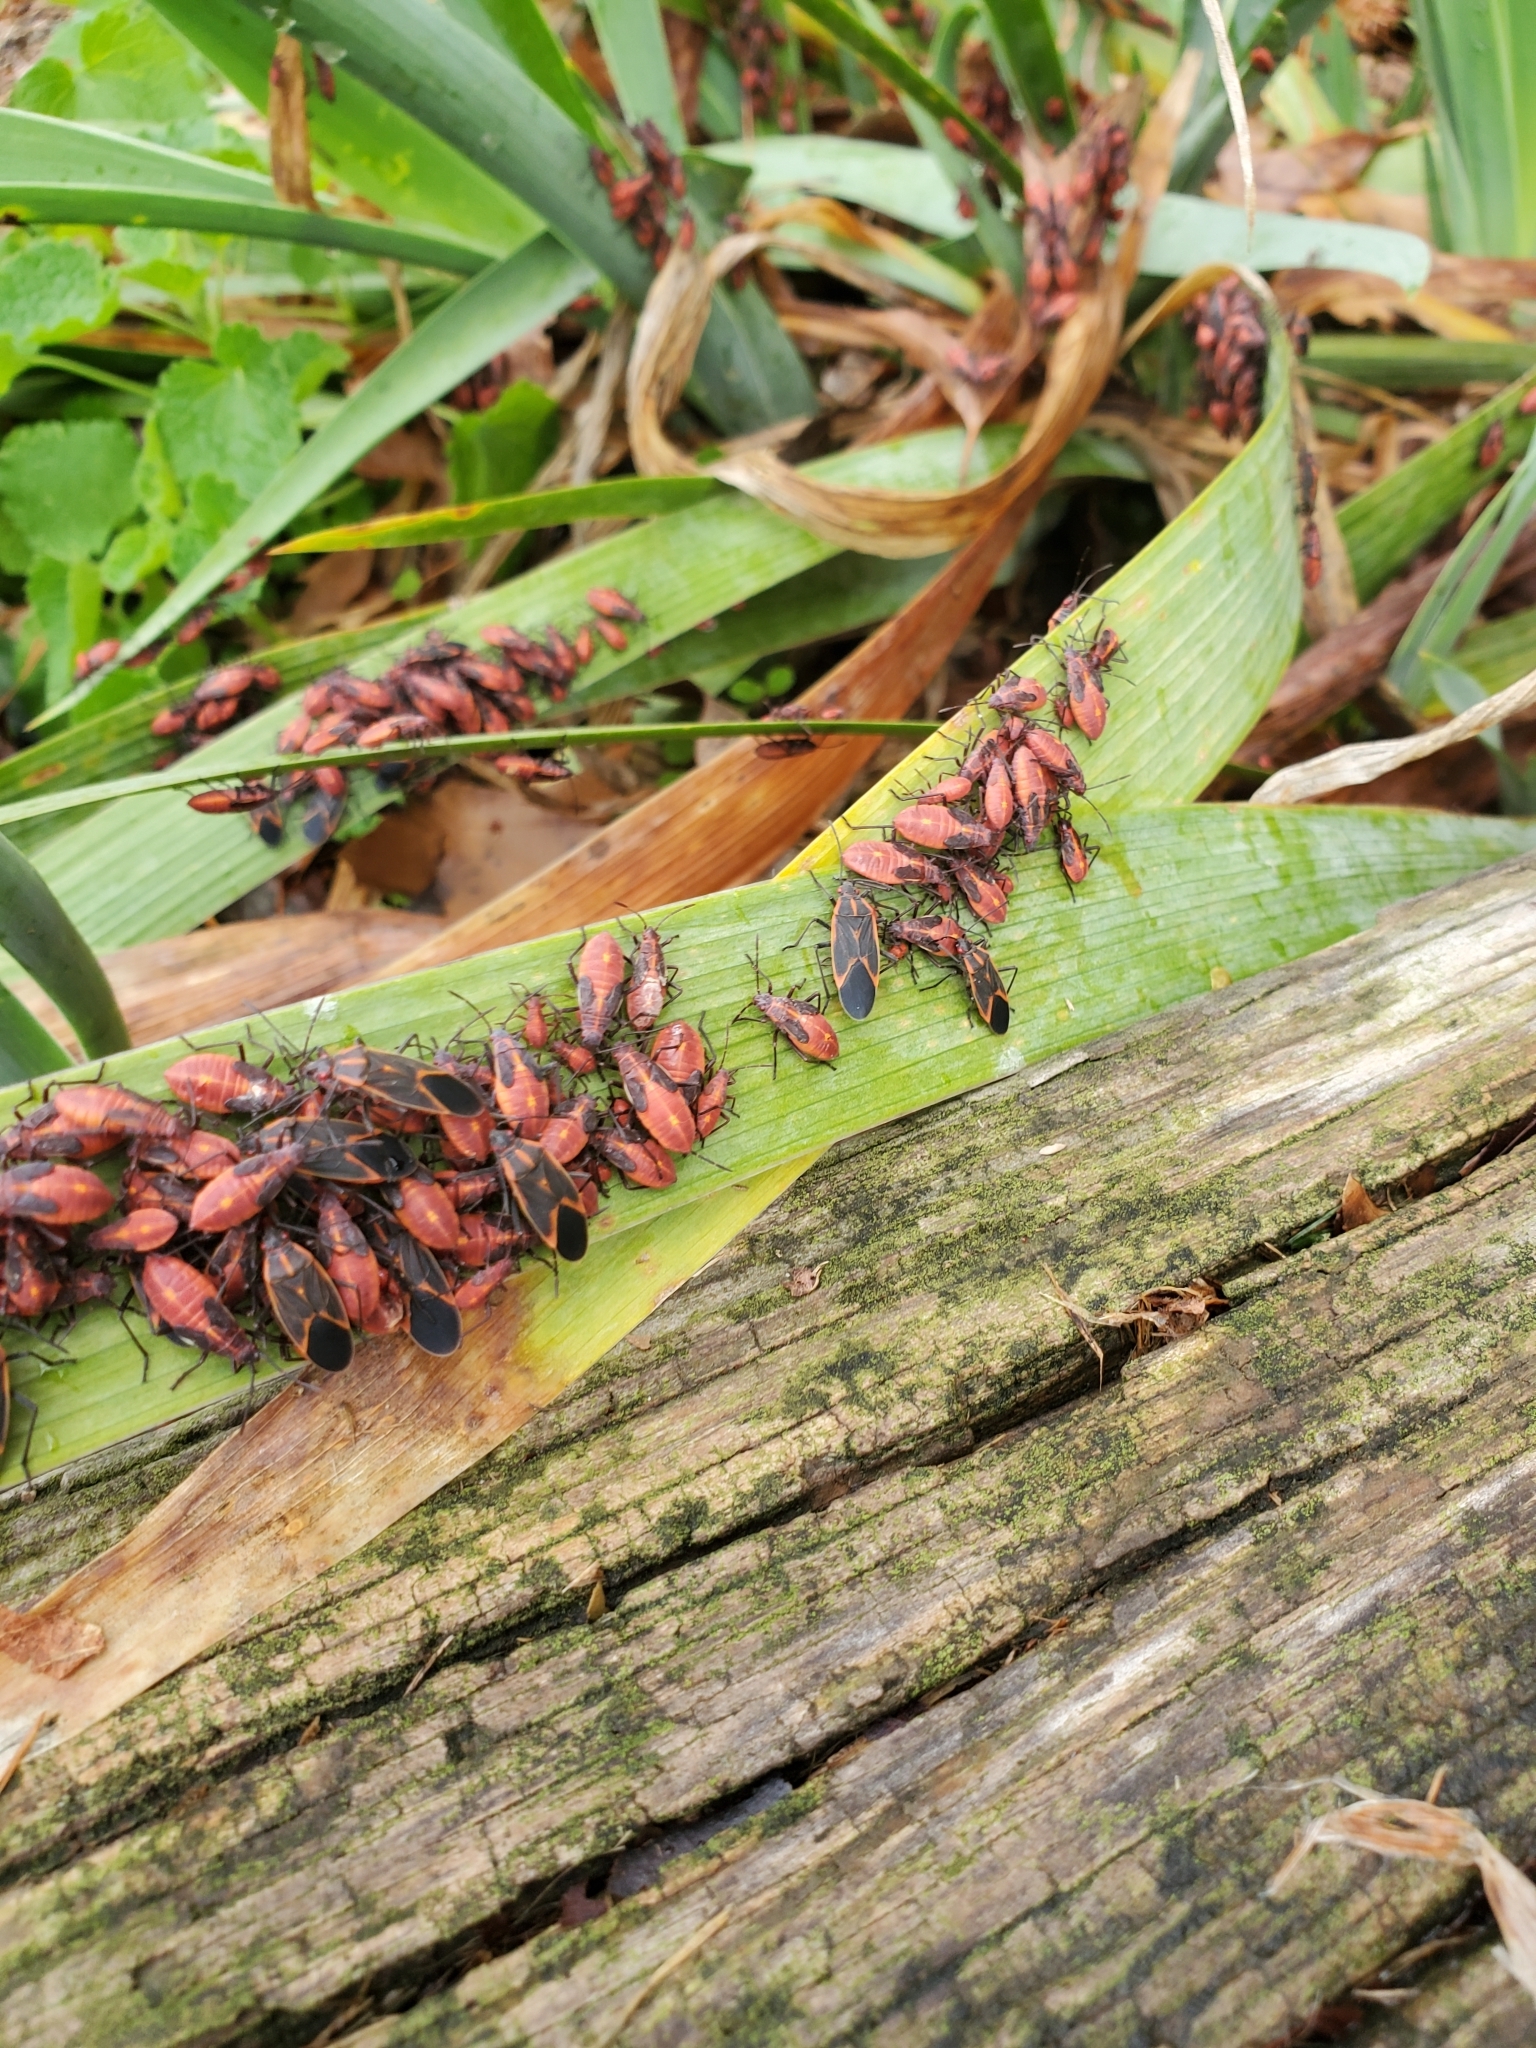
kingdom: Animalia
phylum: Arthropoda
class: Insecta
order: Hemiptera
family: Rhopalidae
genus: Boisea
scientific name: Boisea trivittata
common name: Boxelder bug
